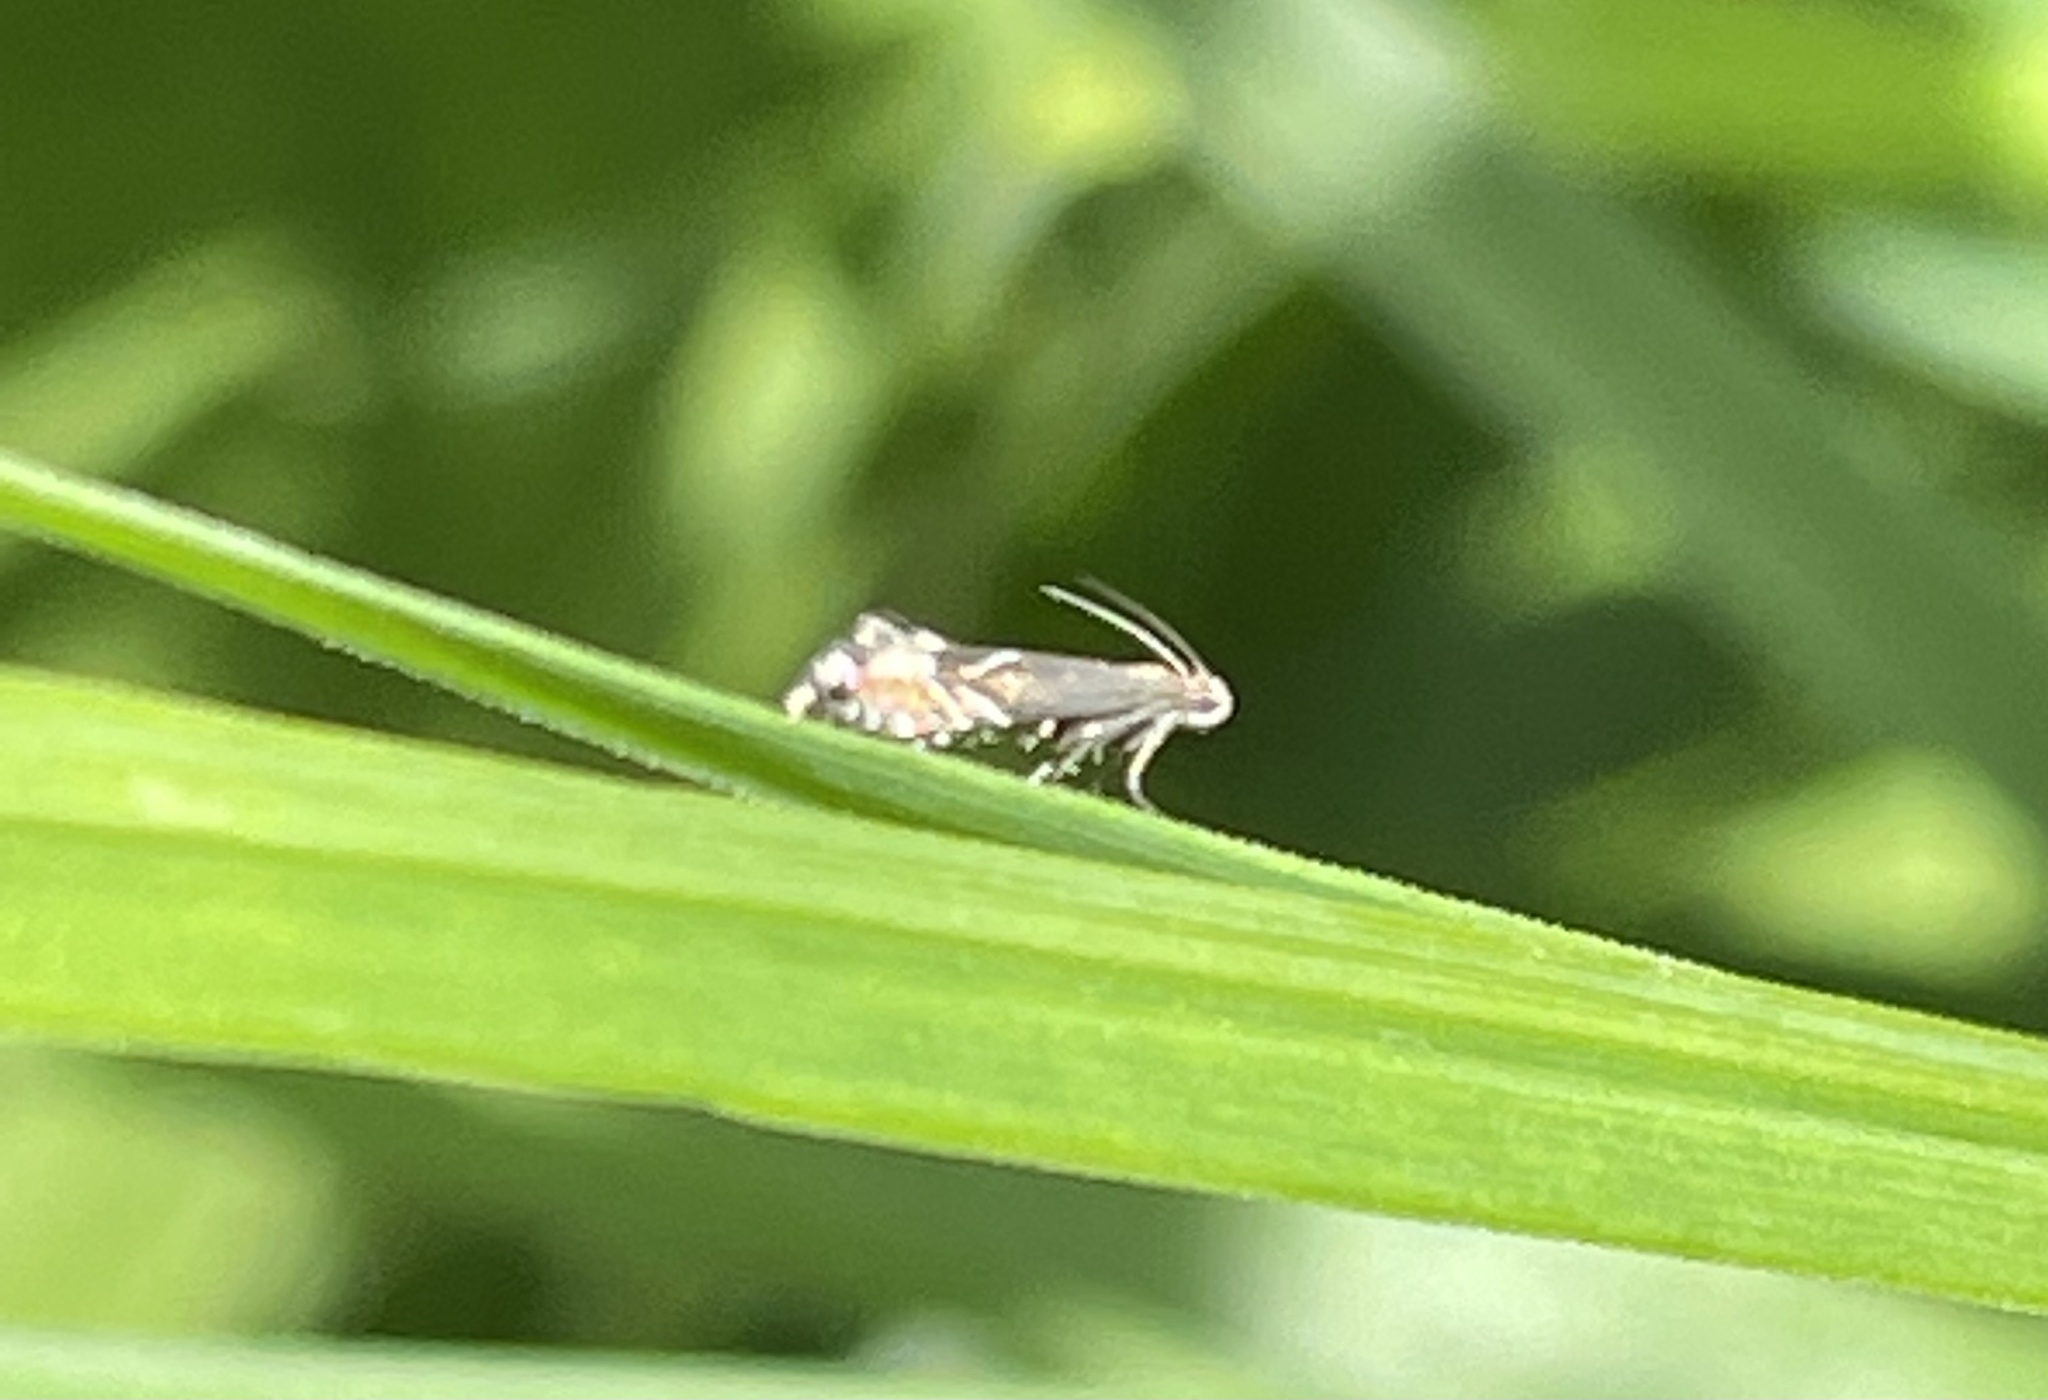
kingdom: Animalia
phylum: Arthropoda
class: Insecta
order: Lepidoptera
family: Glyphipterigidae
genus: Glyphipterix
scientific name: Glyphipterix simpliciella
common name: Cocksfoot moth
